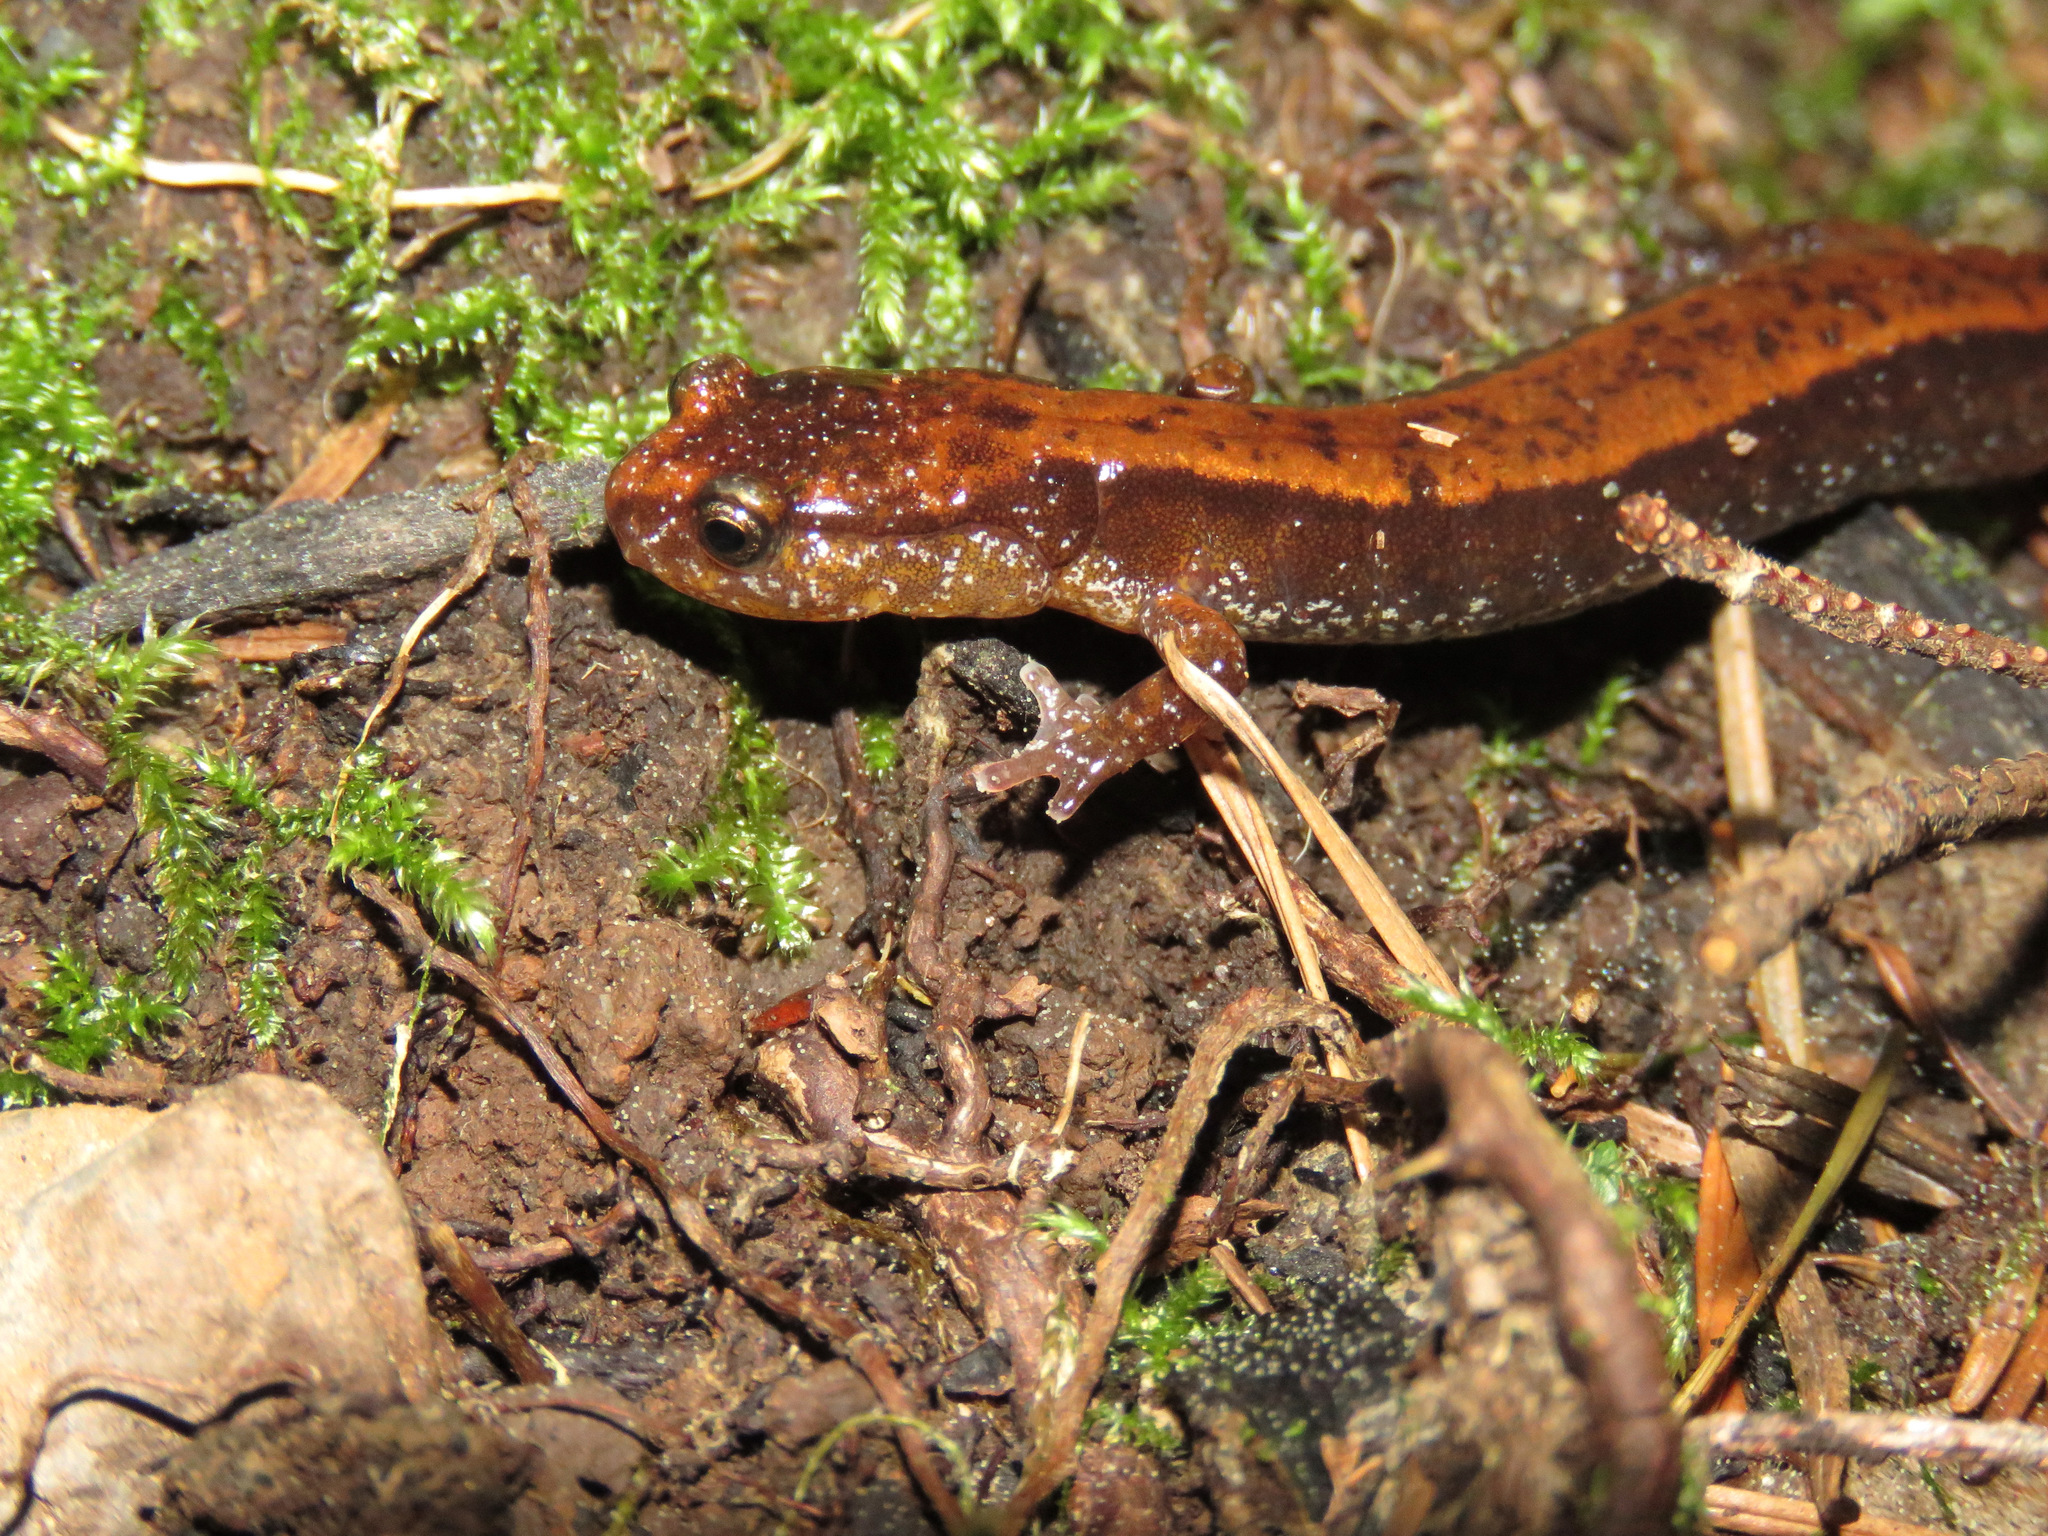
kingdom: Animalia
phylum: Chordata
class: Amphibia
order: Caudata
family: Plethodontidae
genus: Plethodon
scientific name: Plethodon vehiculum
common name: Western red-backed salamander
